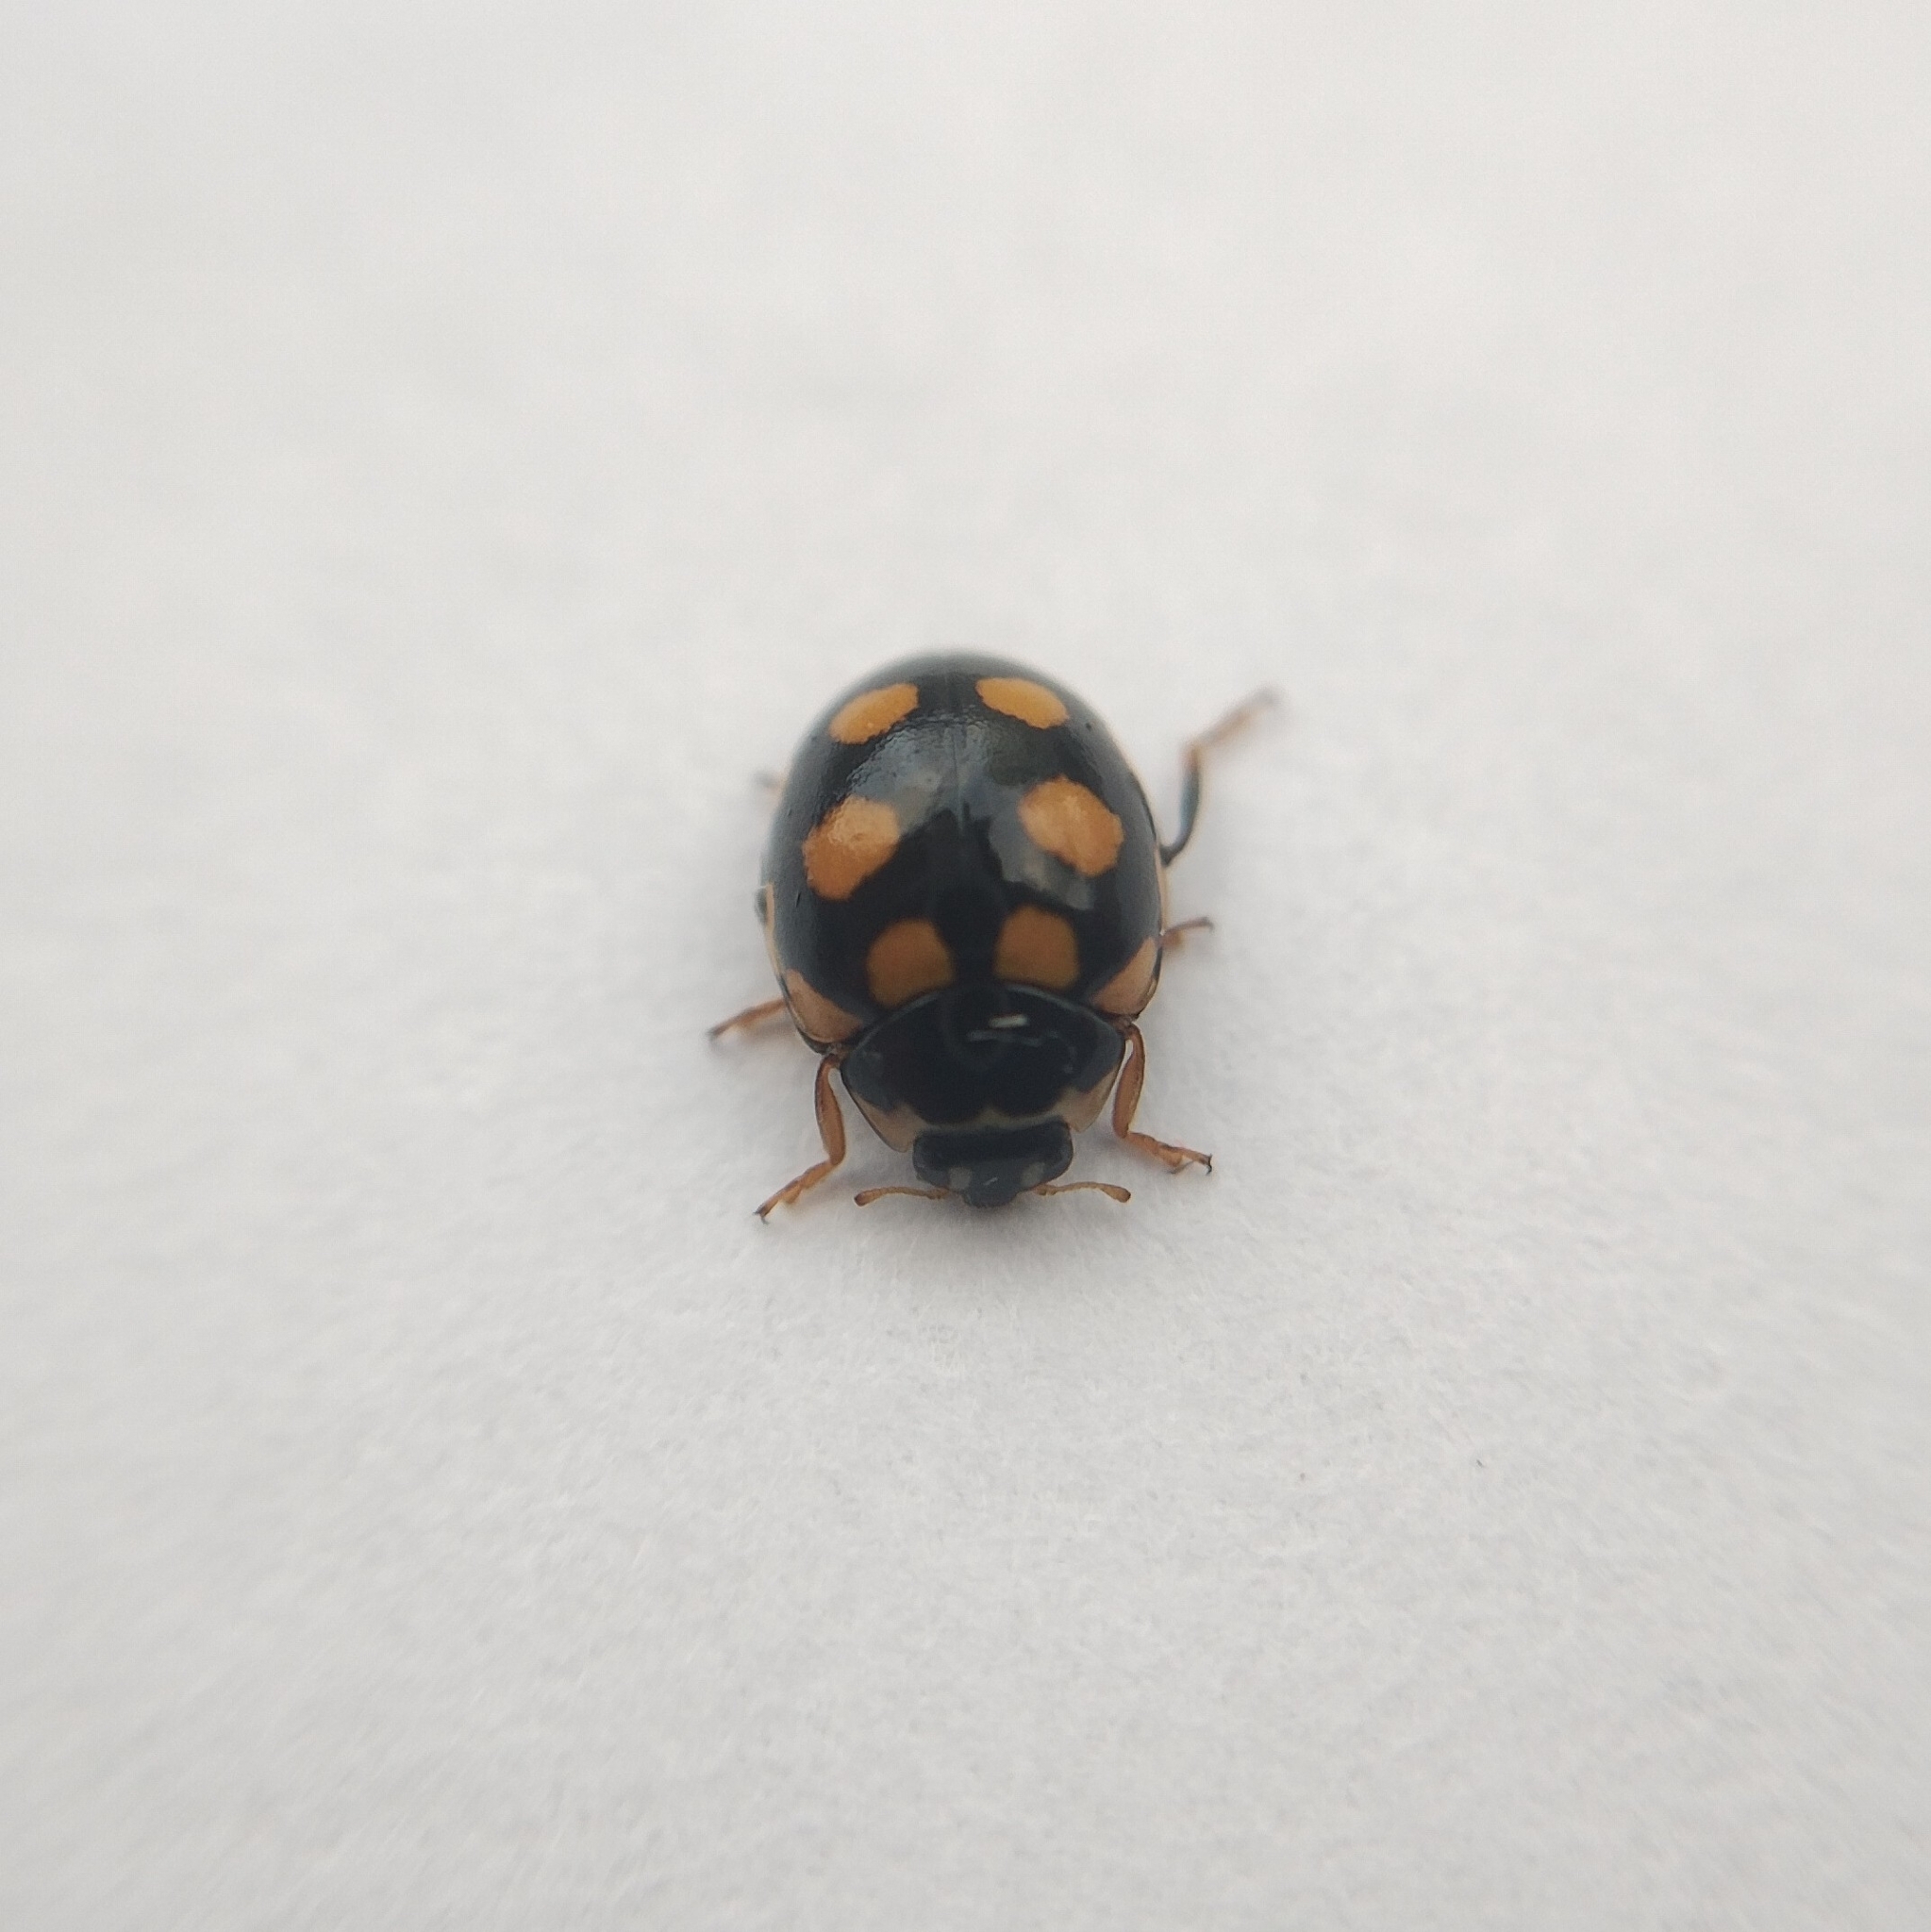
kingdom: Animalia
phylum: Arthropoda
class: Insecta
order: Coleoptera
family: Coccinellidae
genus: Coccinula
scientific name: Coccinula quatuordecimpustulata
